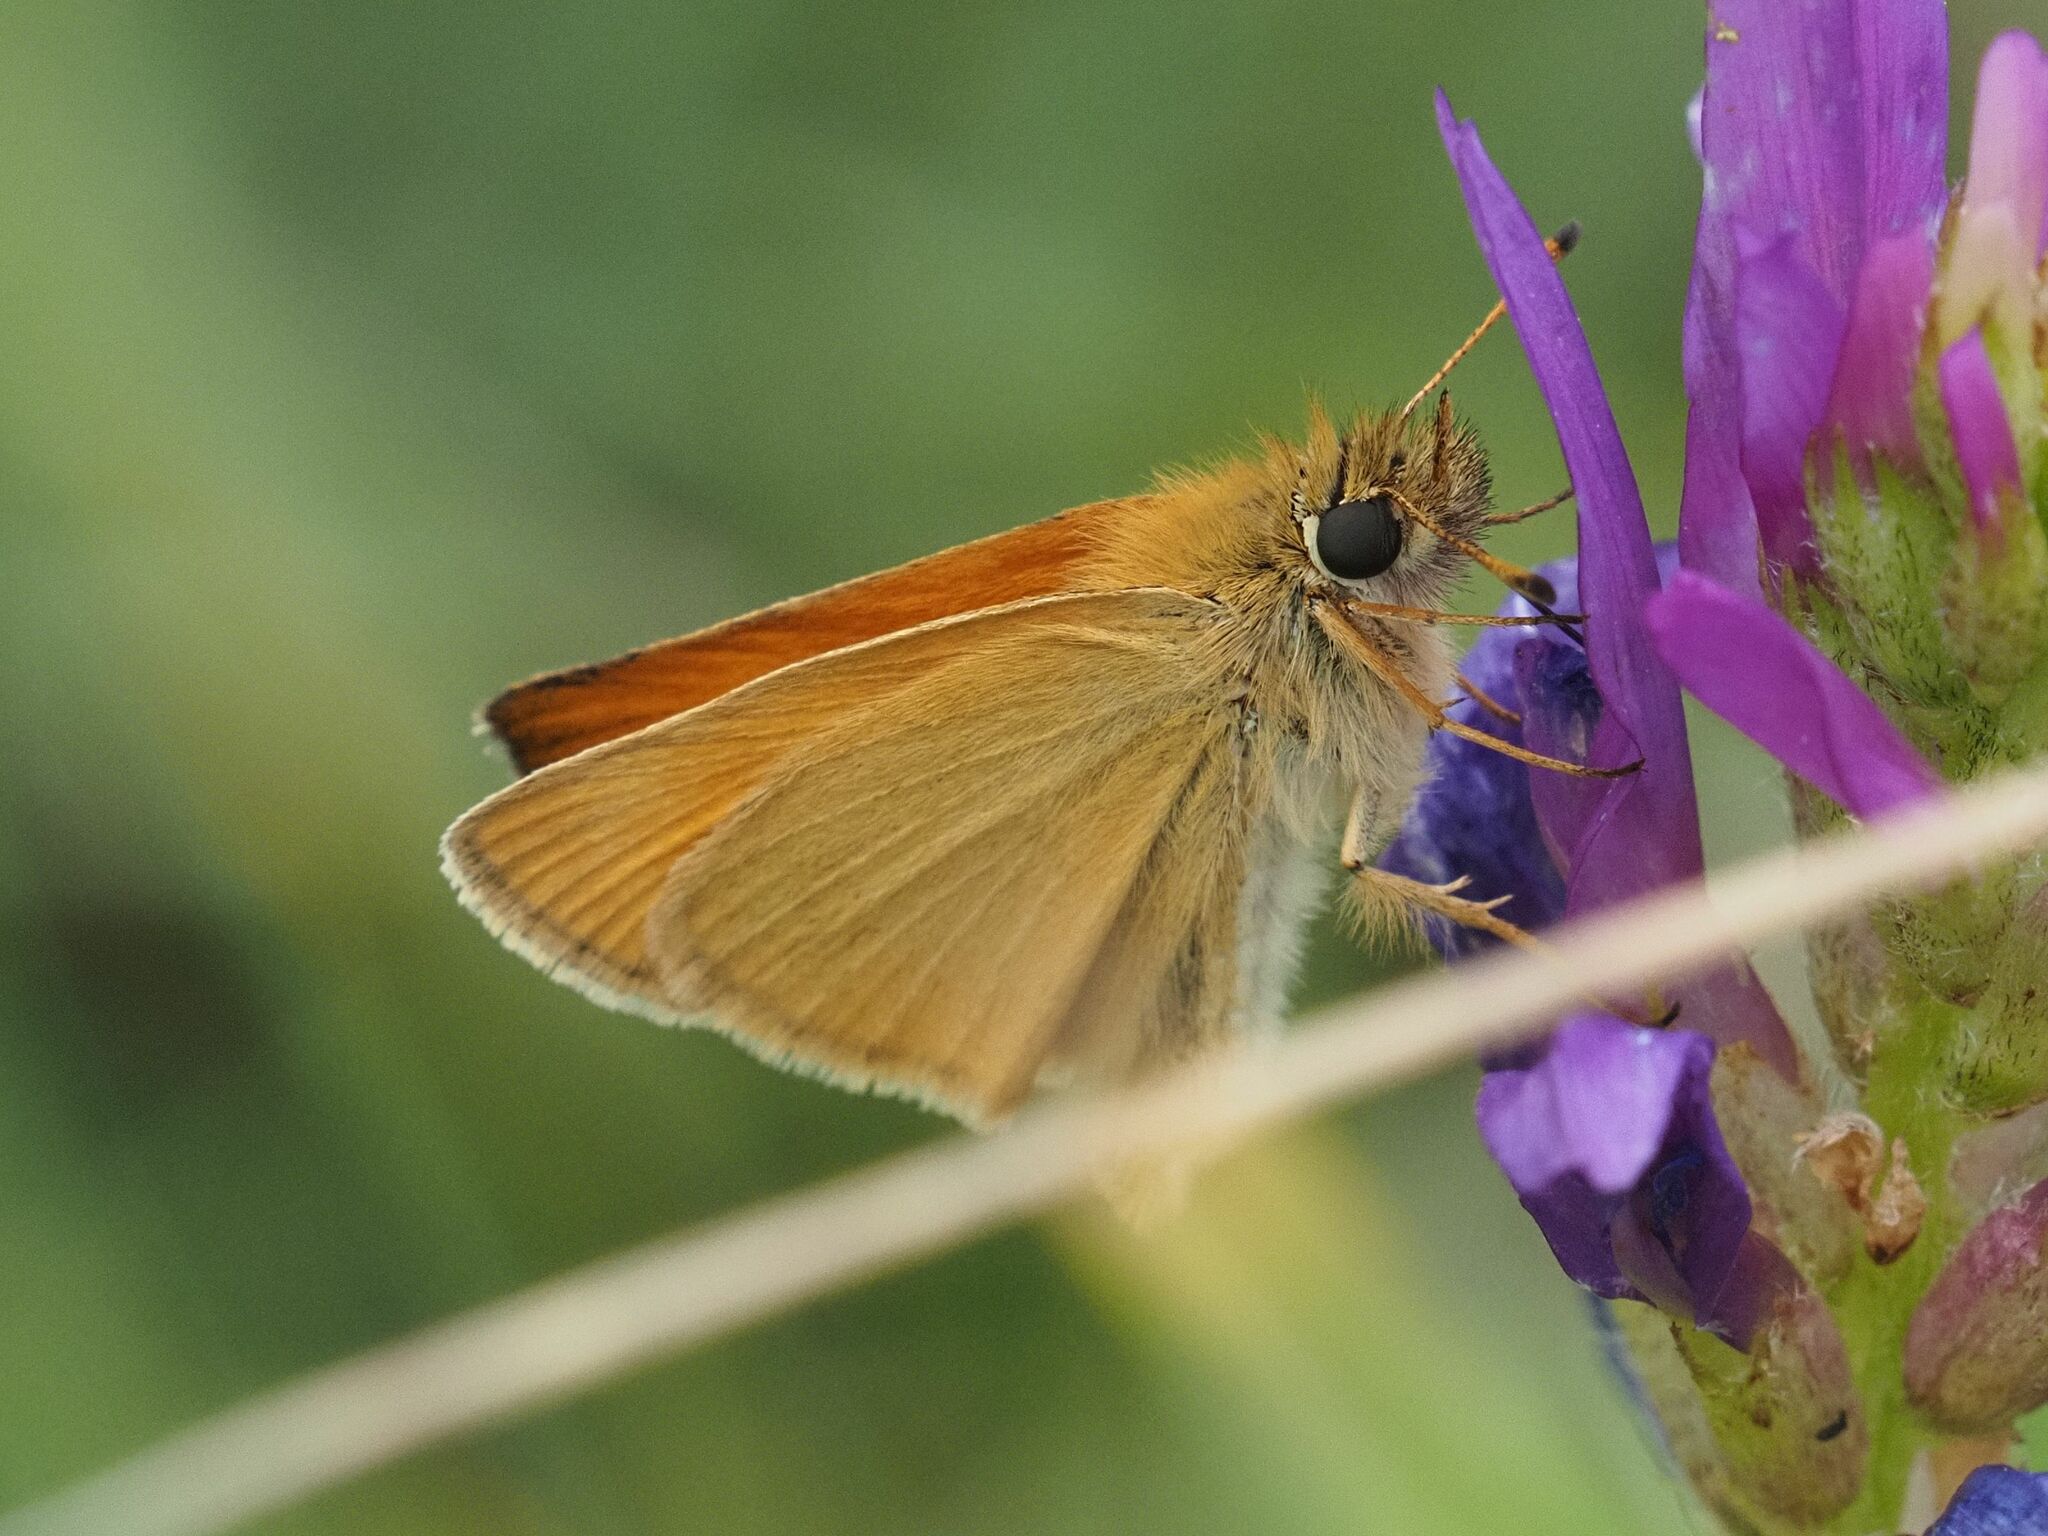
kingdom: Animalia
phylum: Arthropoda
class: Insecta
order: Lepidoptera
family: Hesperiidae
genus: Thymelicus
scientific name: Thymelicus lineola
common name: Essex skipper
